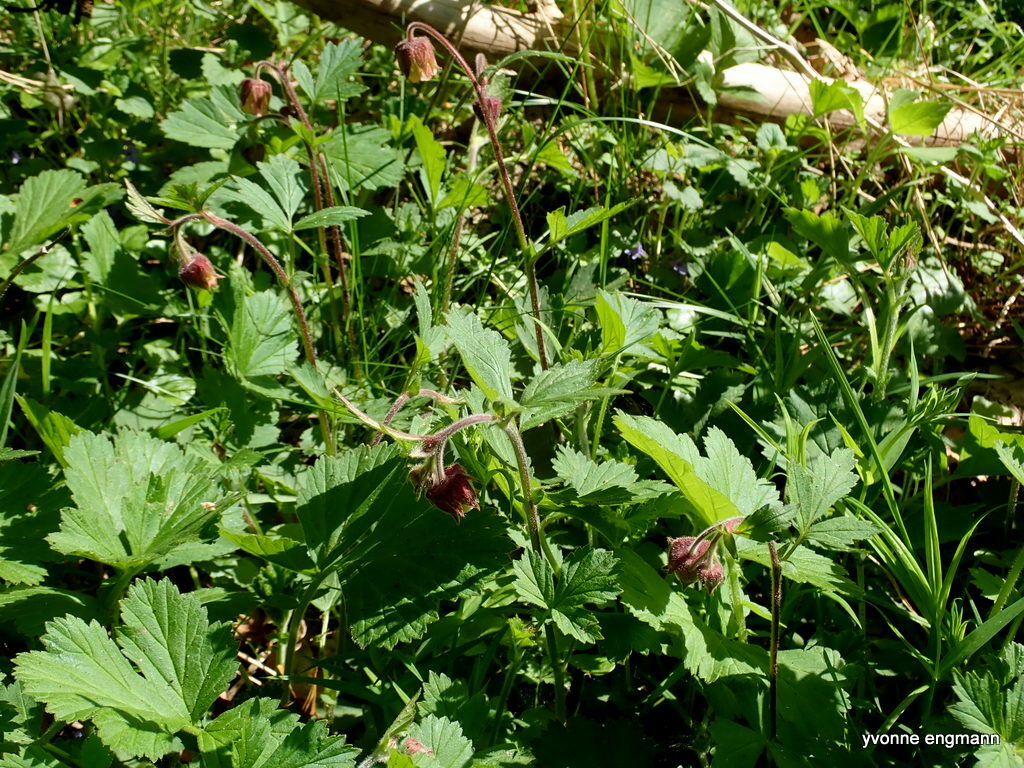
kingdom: Plantae
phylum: Tracheophyta
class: Magnoliopsida
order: Rosales
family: Rosaceae
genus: Geum
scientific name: Geum rivale
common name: Water avens
